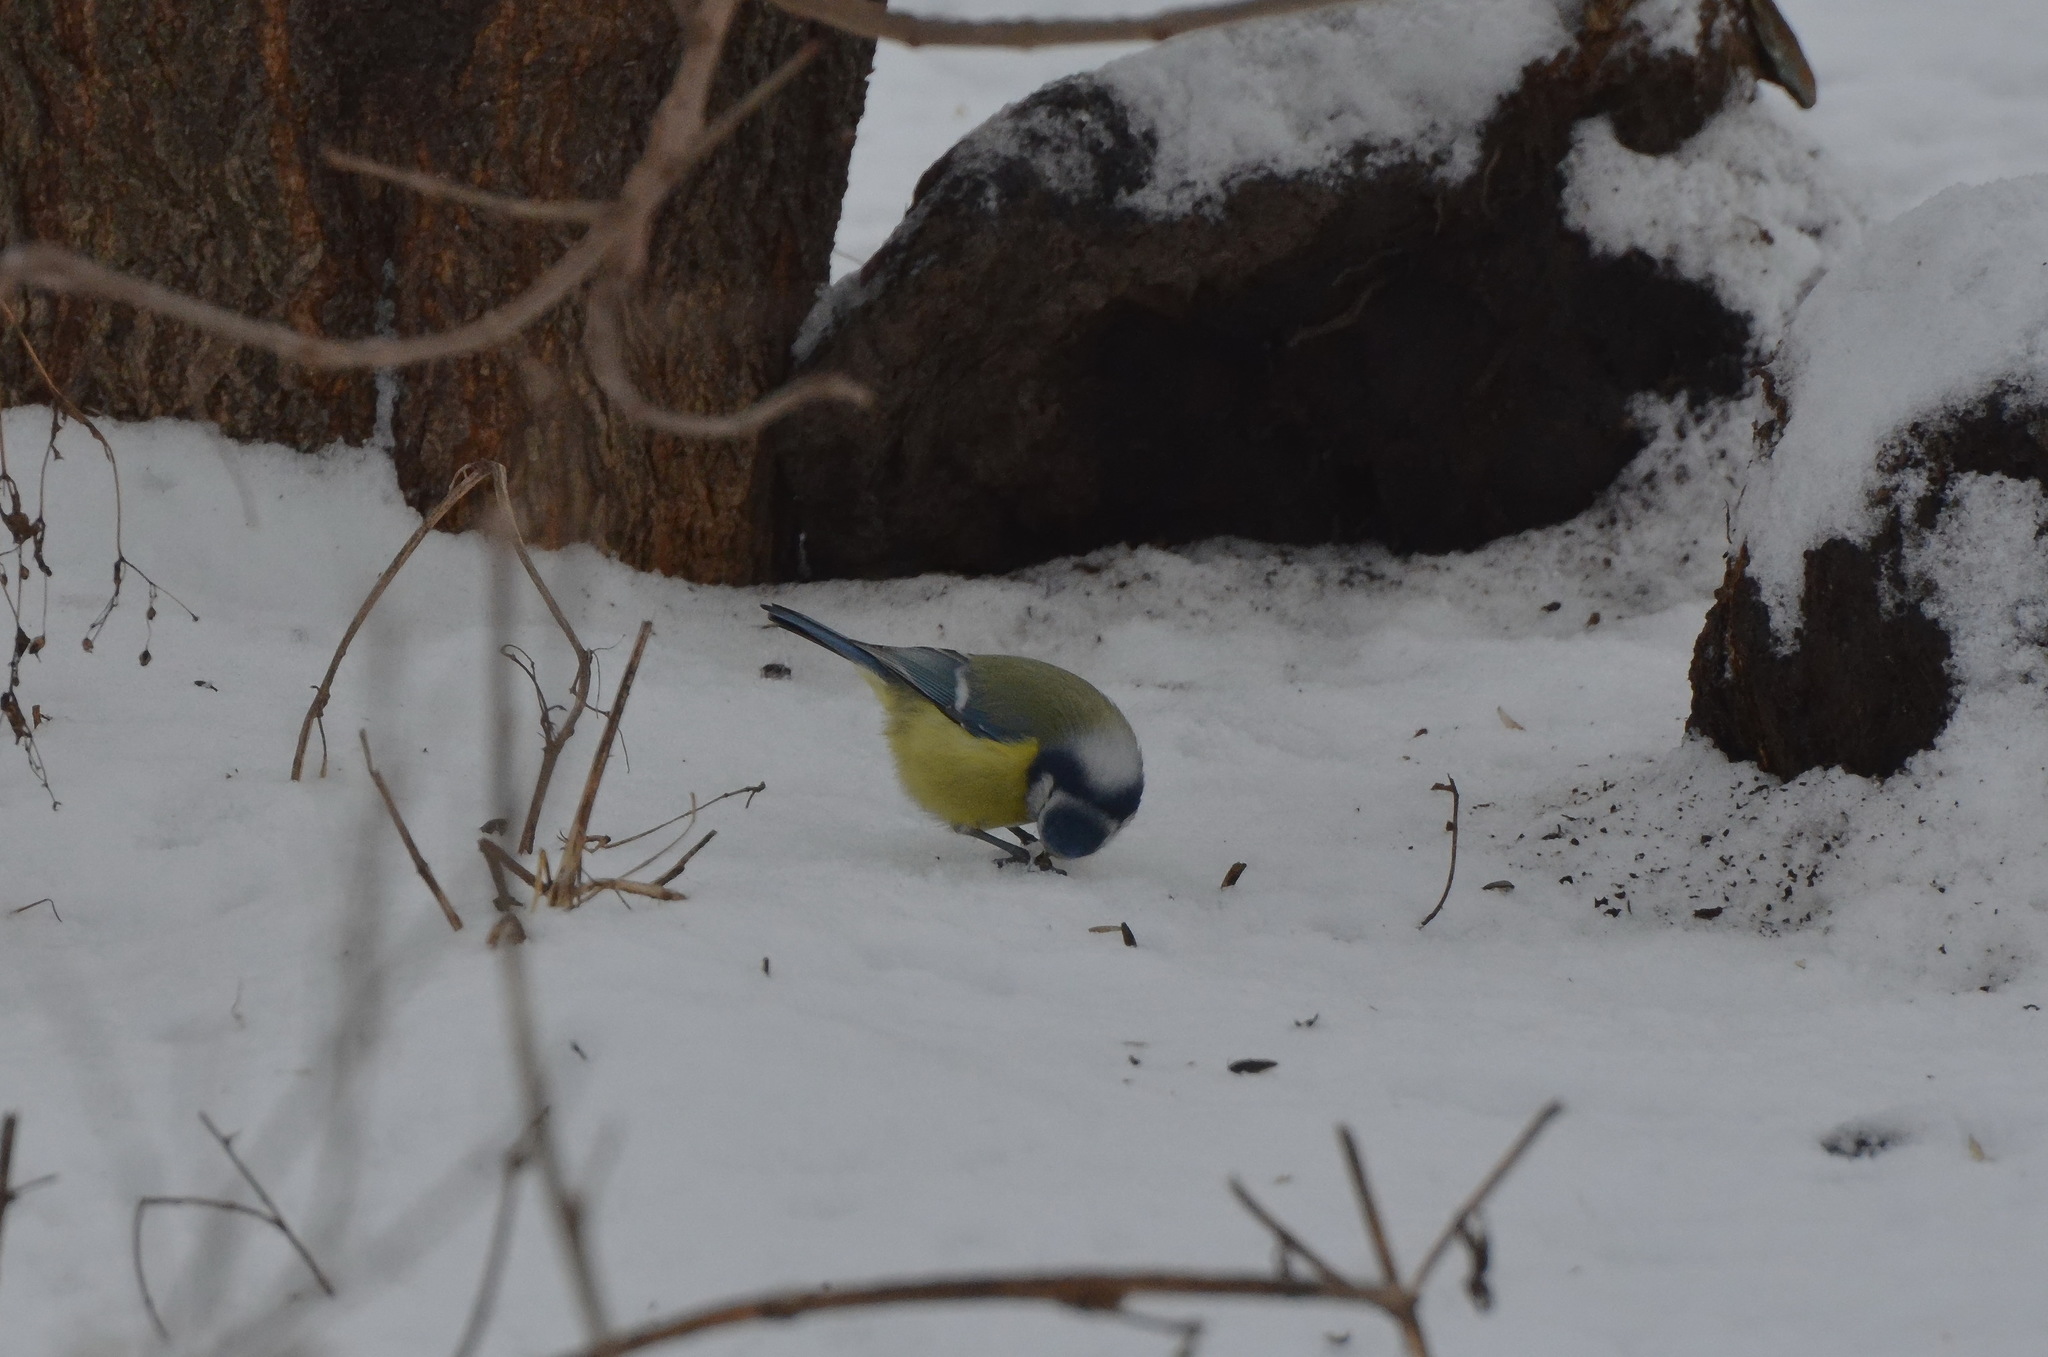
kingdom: Animalia
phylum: Chordata
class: Aves
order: Passeriformes
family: Paridae
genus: Cyanistes
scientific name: Cyanistes caeruleus
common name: Eurasian blue tit
